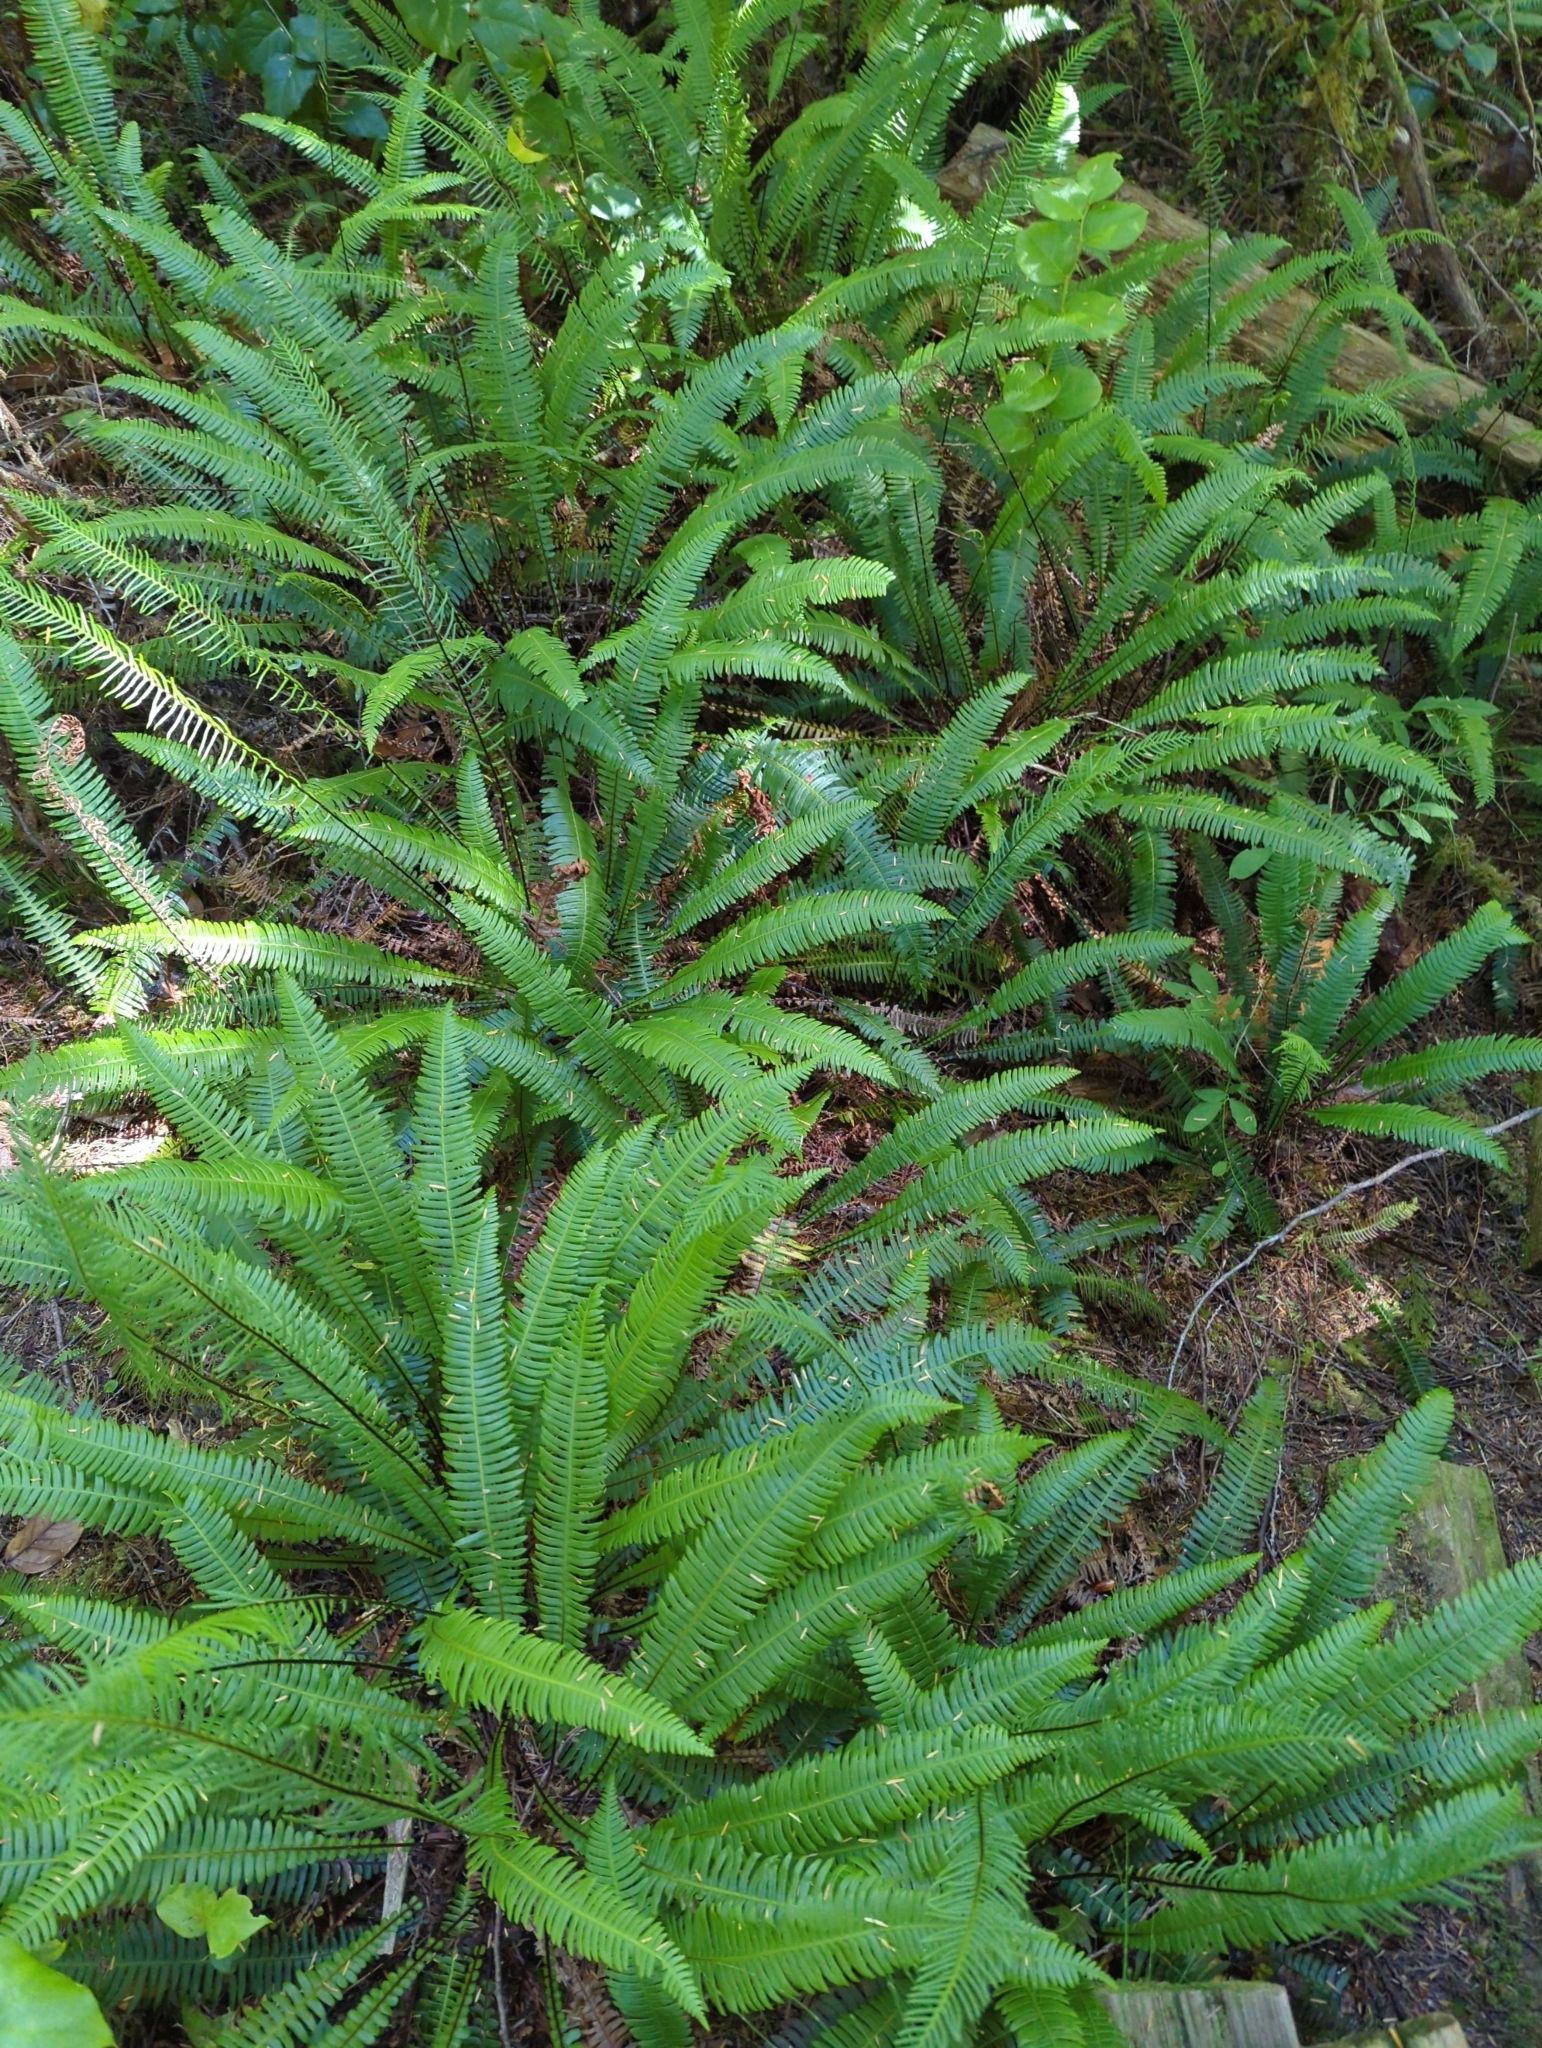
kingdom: Plantae
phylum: Tracheophyta
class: Polypodiopsida
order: Polypodiales
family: Blechnaceae
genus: Struthiopteris
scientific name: Struthiopteris spicant
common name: Deer fern
